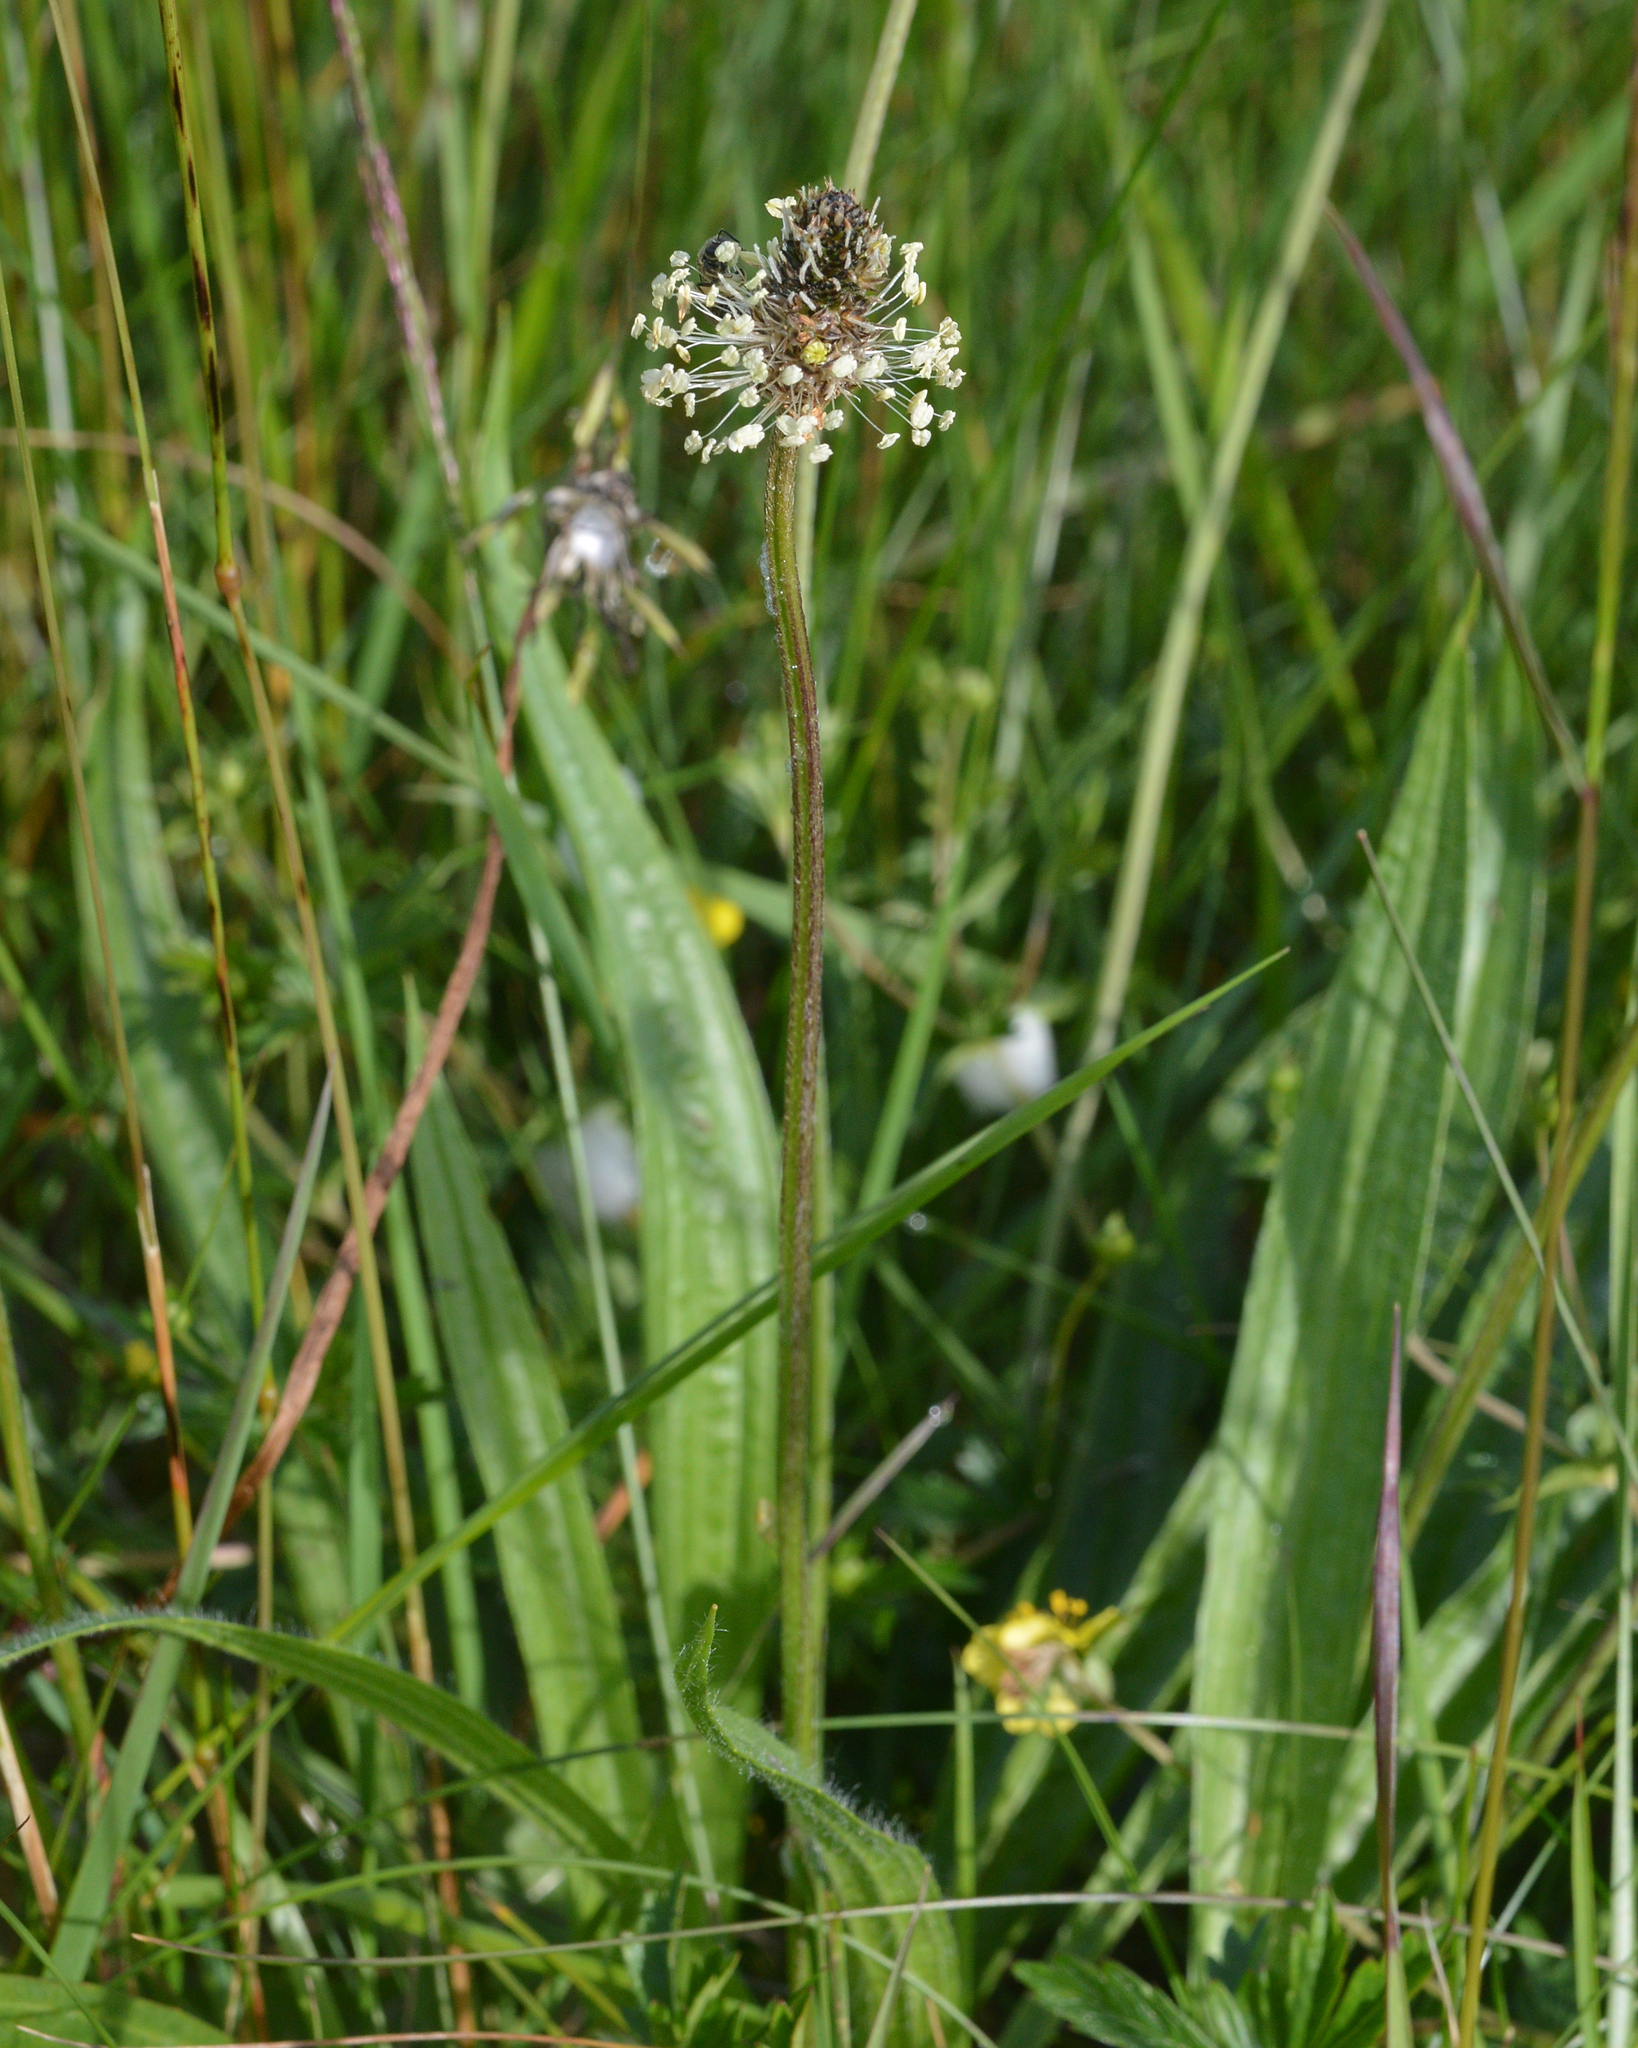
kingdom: Plantae
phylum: Tracheophyta
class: Magnoliopsida
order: Lamiales
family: Plantaginaceae
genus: Plantago
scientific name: Plantago lanceolata
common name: Ribwort plantain
